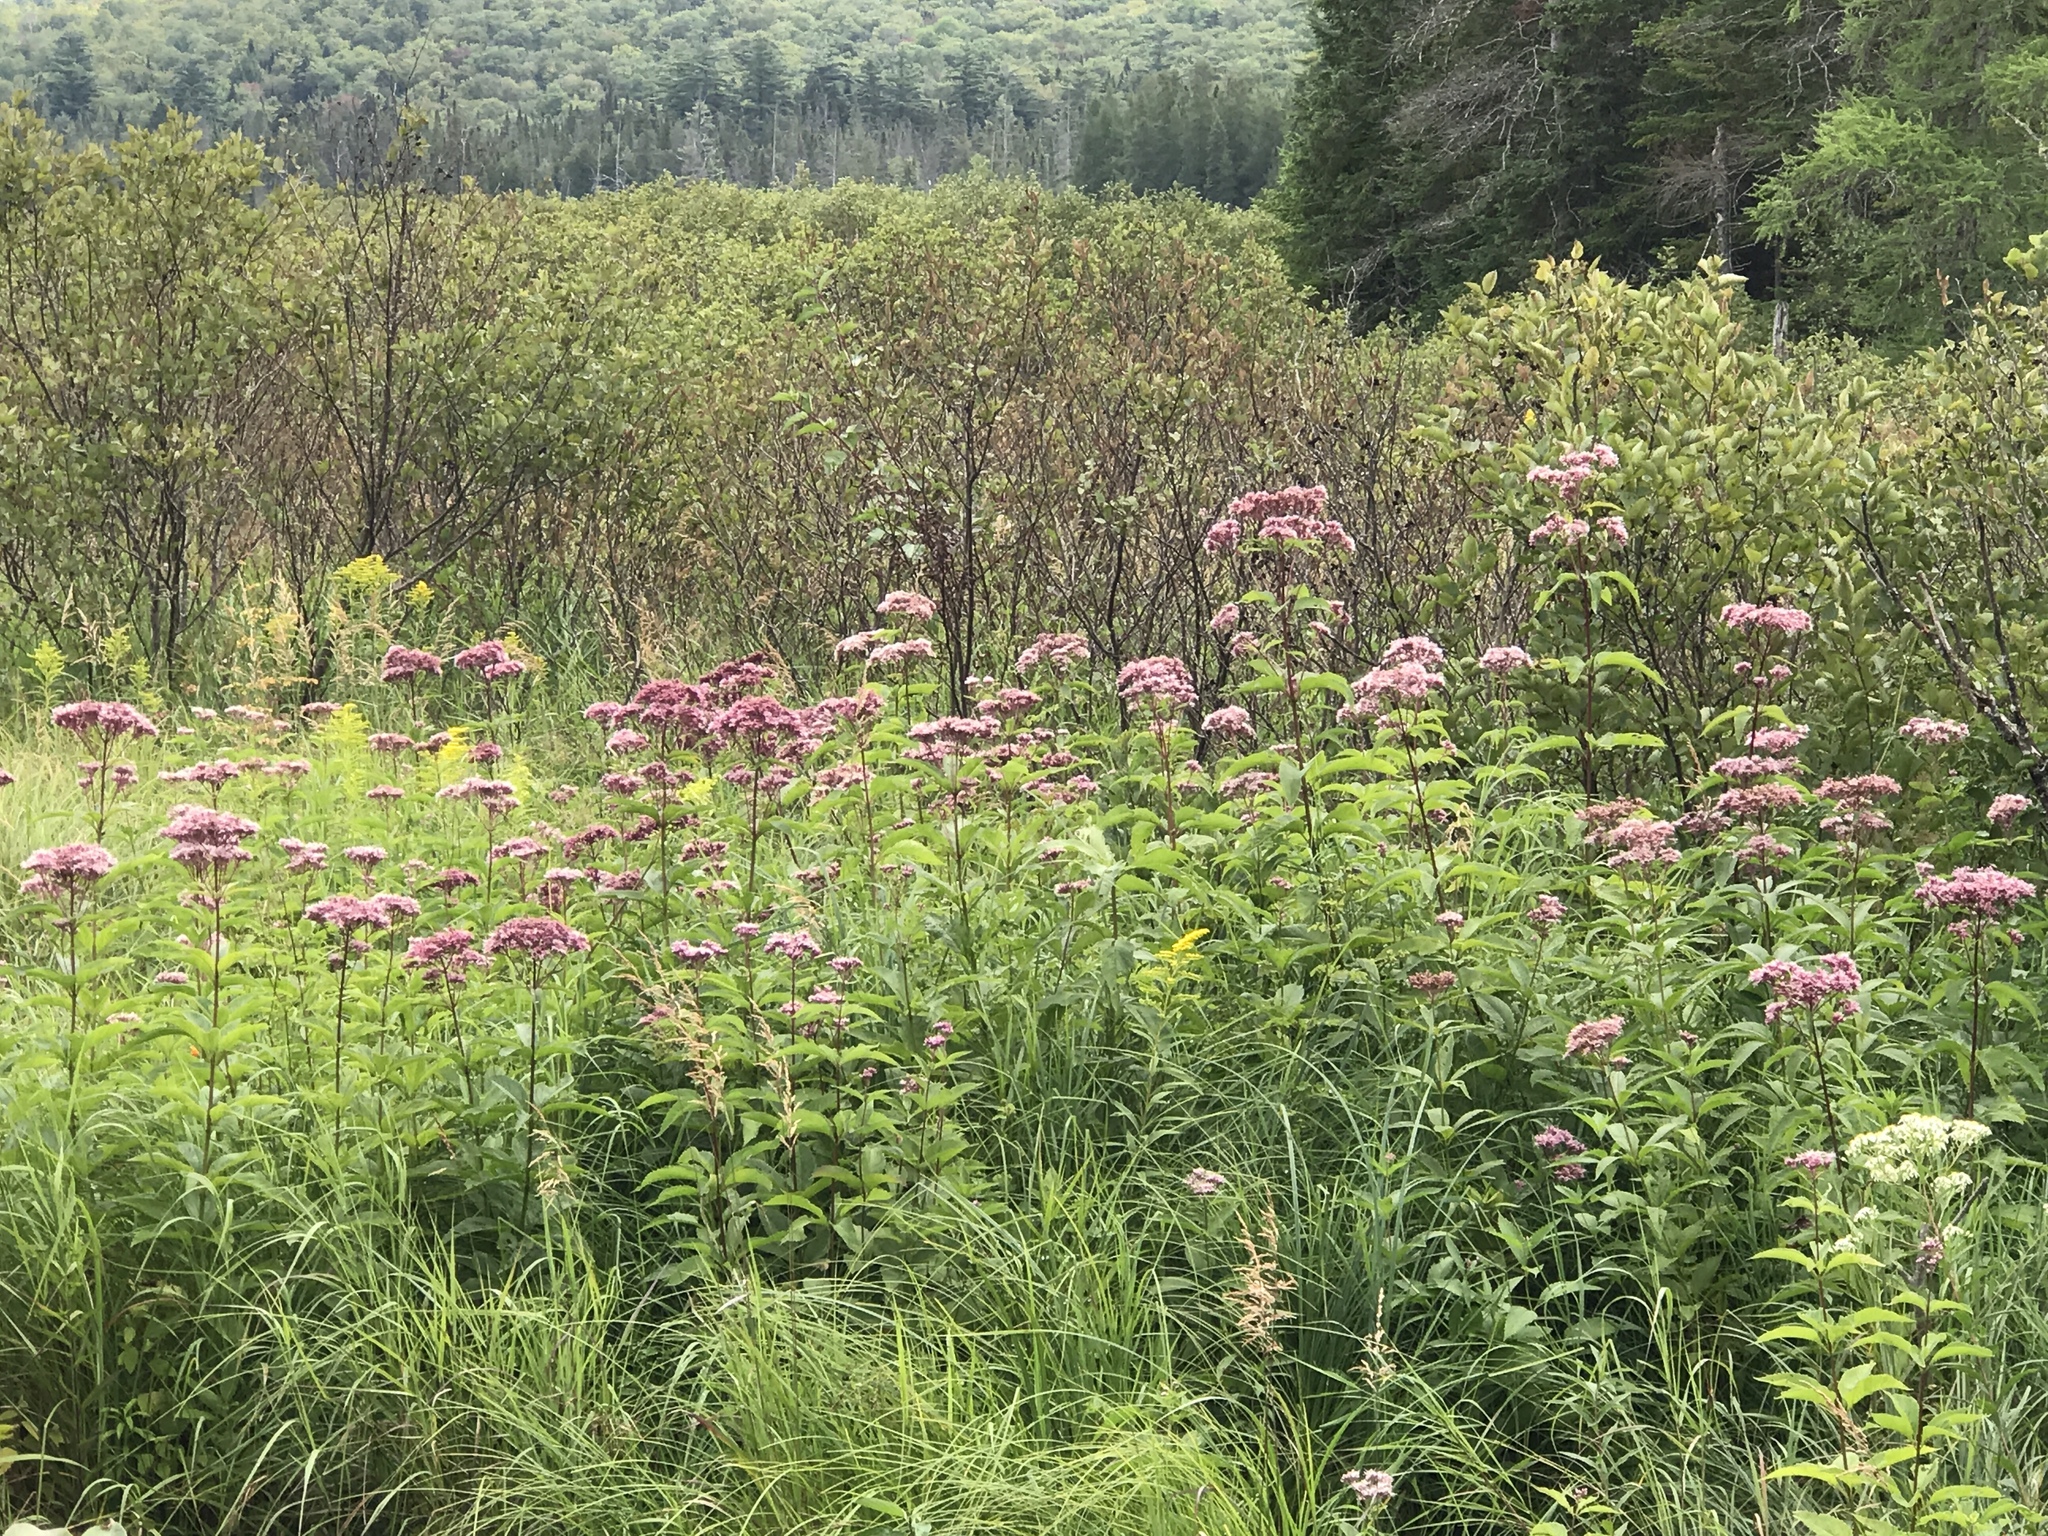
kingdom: Plantae
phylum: Tracheophyta
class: Magnoliopsida
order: Asterales
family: Asteraceae
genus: Eutrochium
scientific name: Eutrochium maculatum
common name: Spotted joe pye weed
